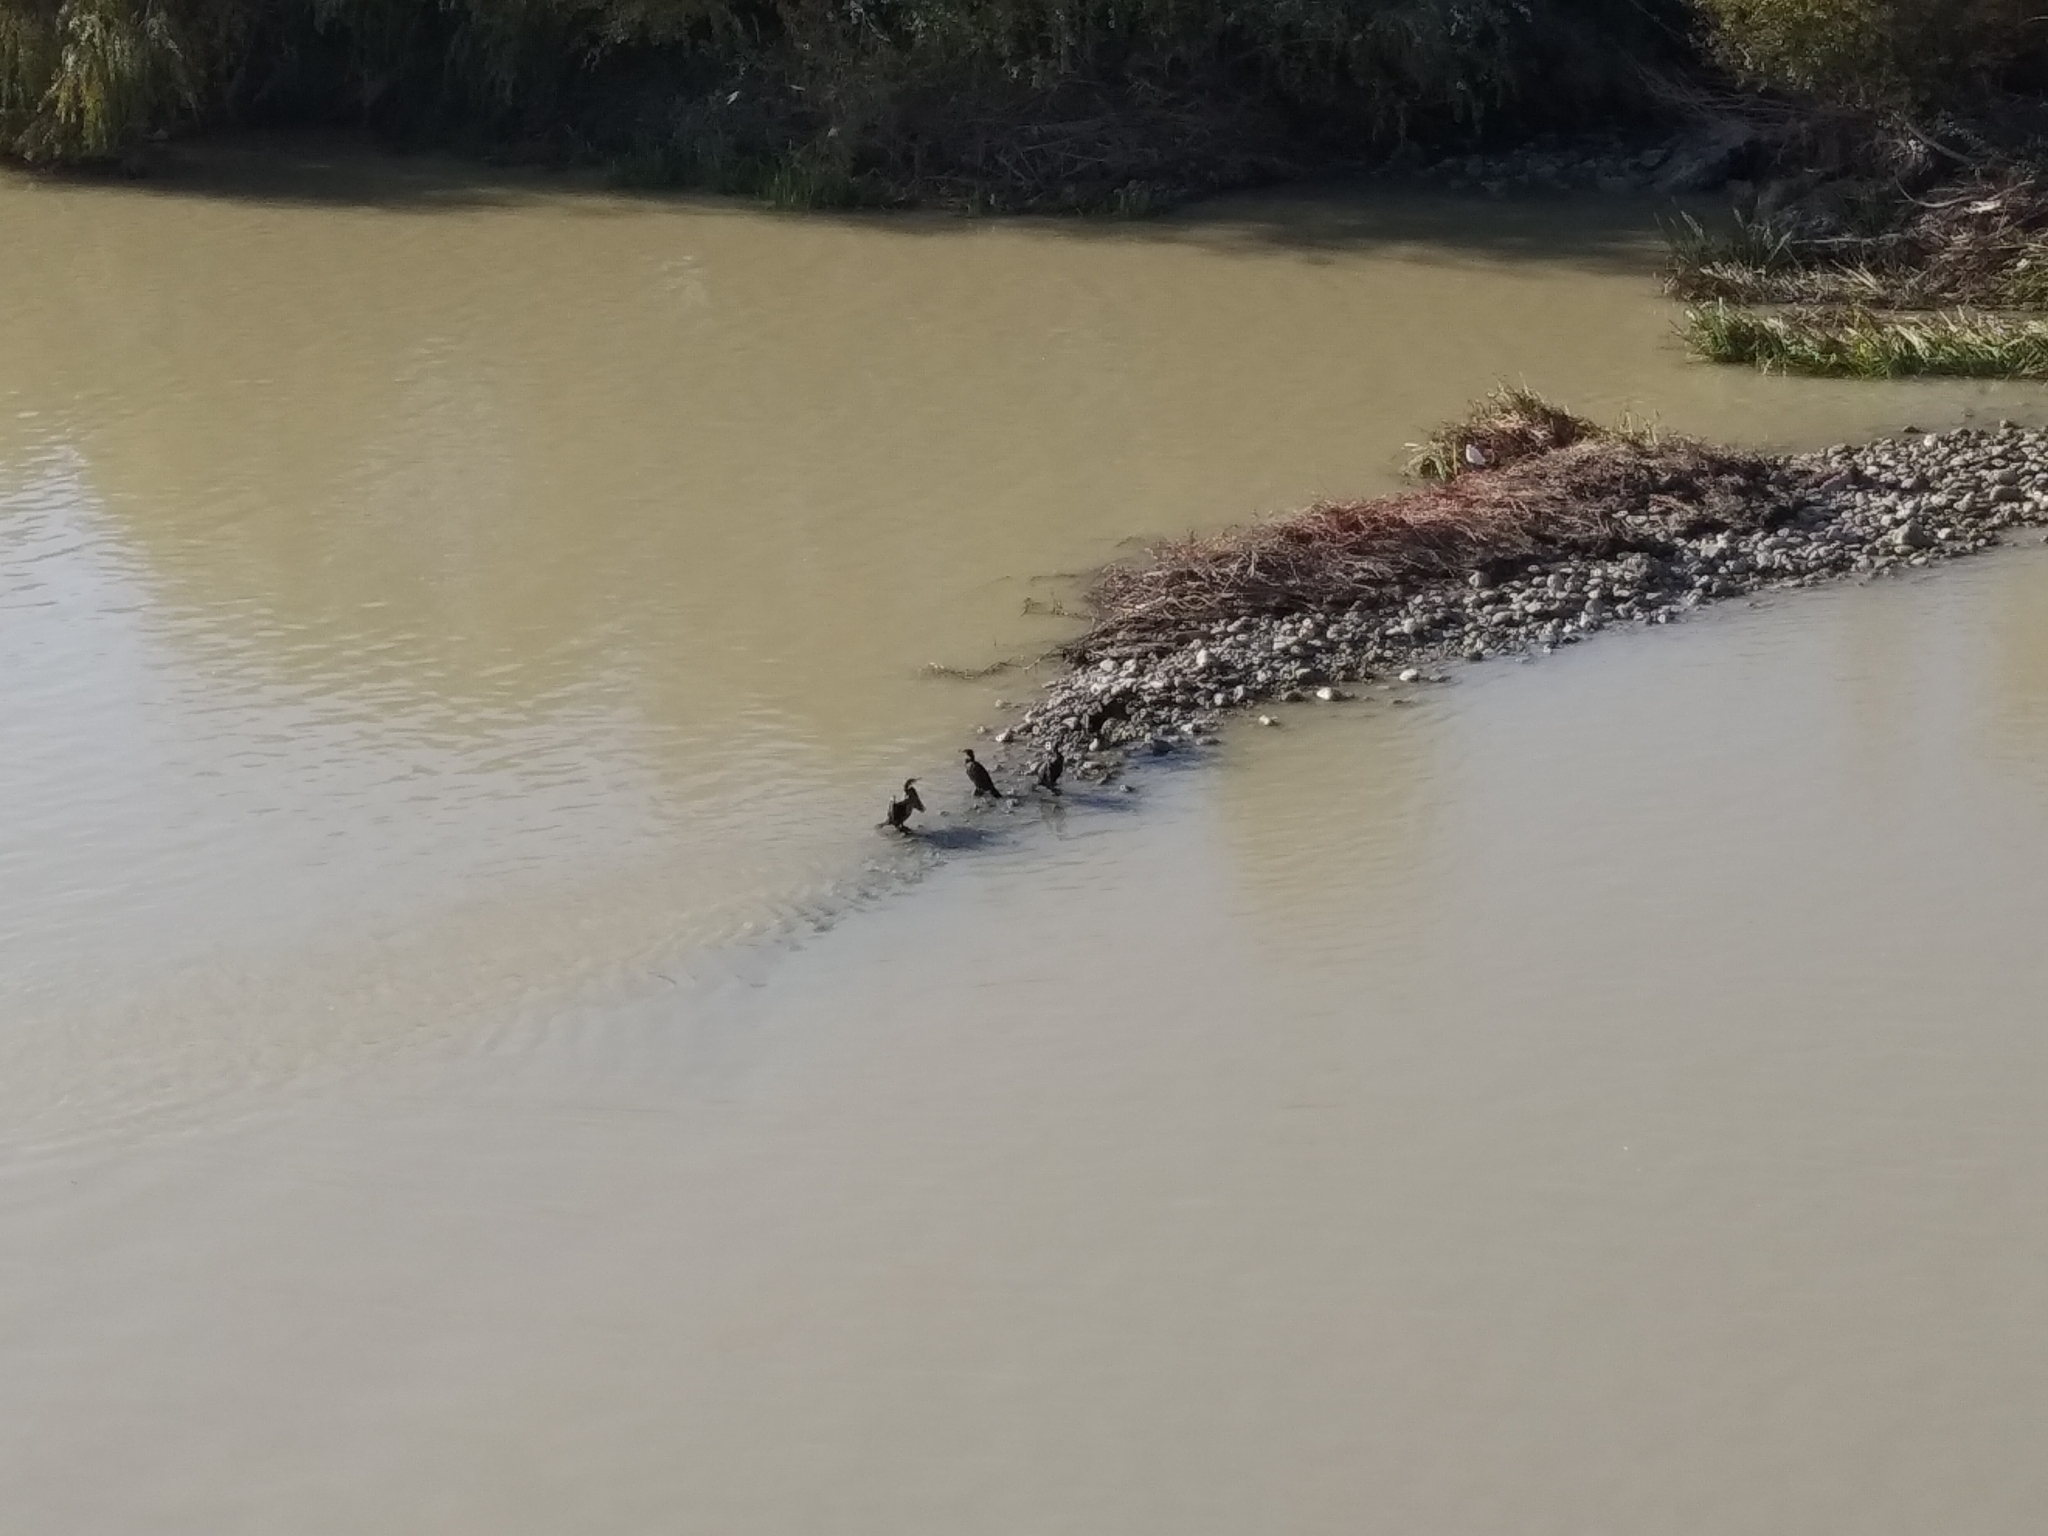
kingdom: Animalia
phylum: Chordata
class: Aves
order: Suliformes
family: Phalacrocoracidae
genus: Phalacrocorax
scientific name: Phalacrocorax carbo
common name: Great cormorant
